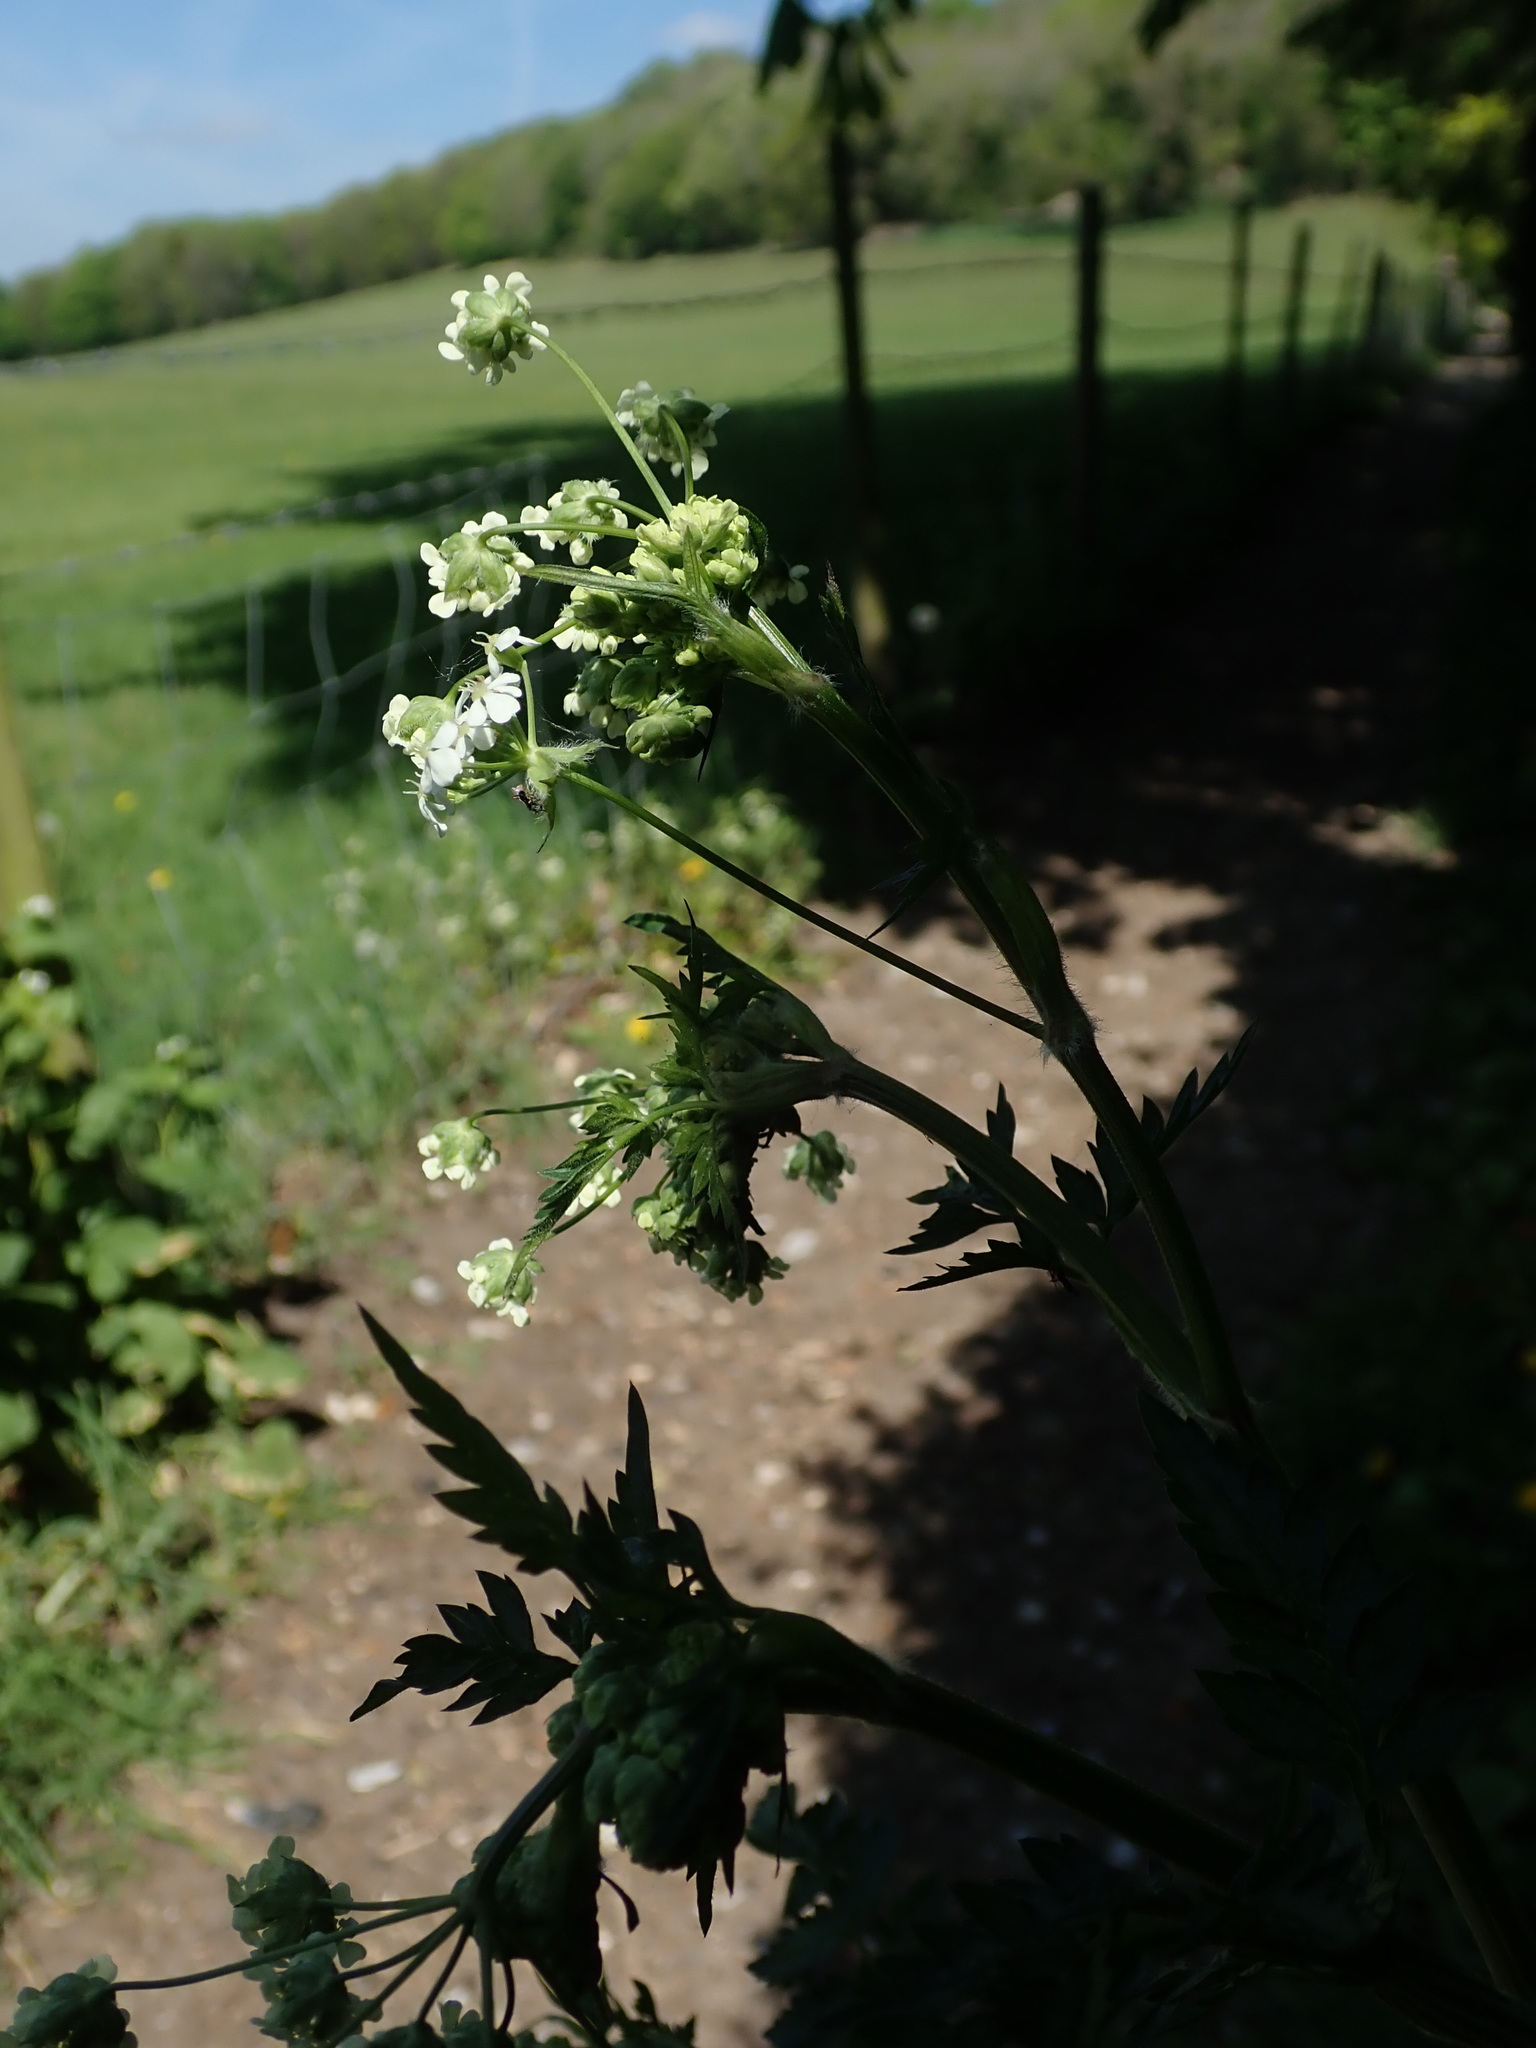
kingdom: Plantae
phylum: Tracheophyta
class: Magnoliopsida
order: Apiales
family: Apiaceae
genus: Anthriscus
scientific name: Anthriscus sylvestris
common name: Cow parsley
